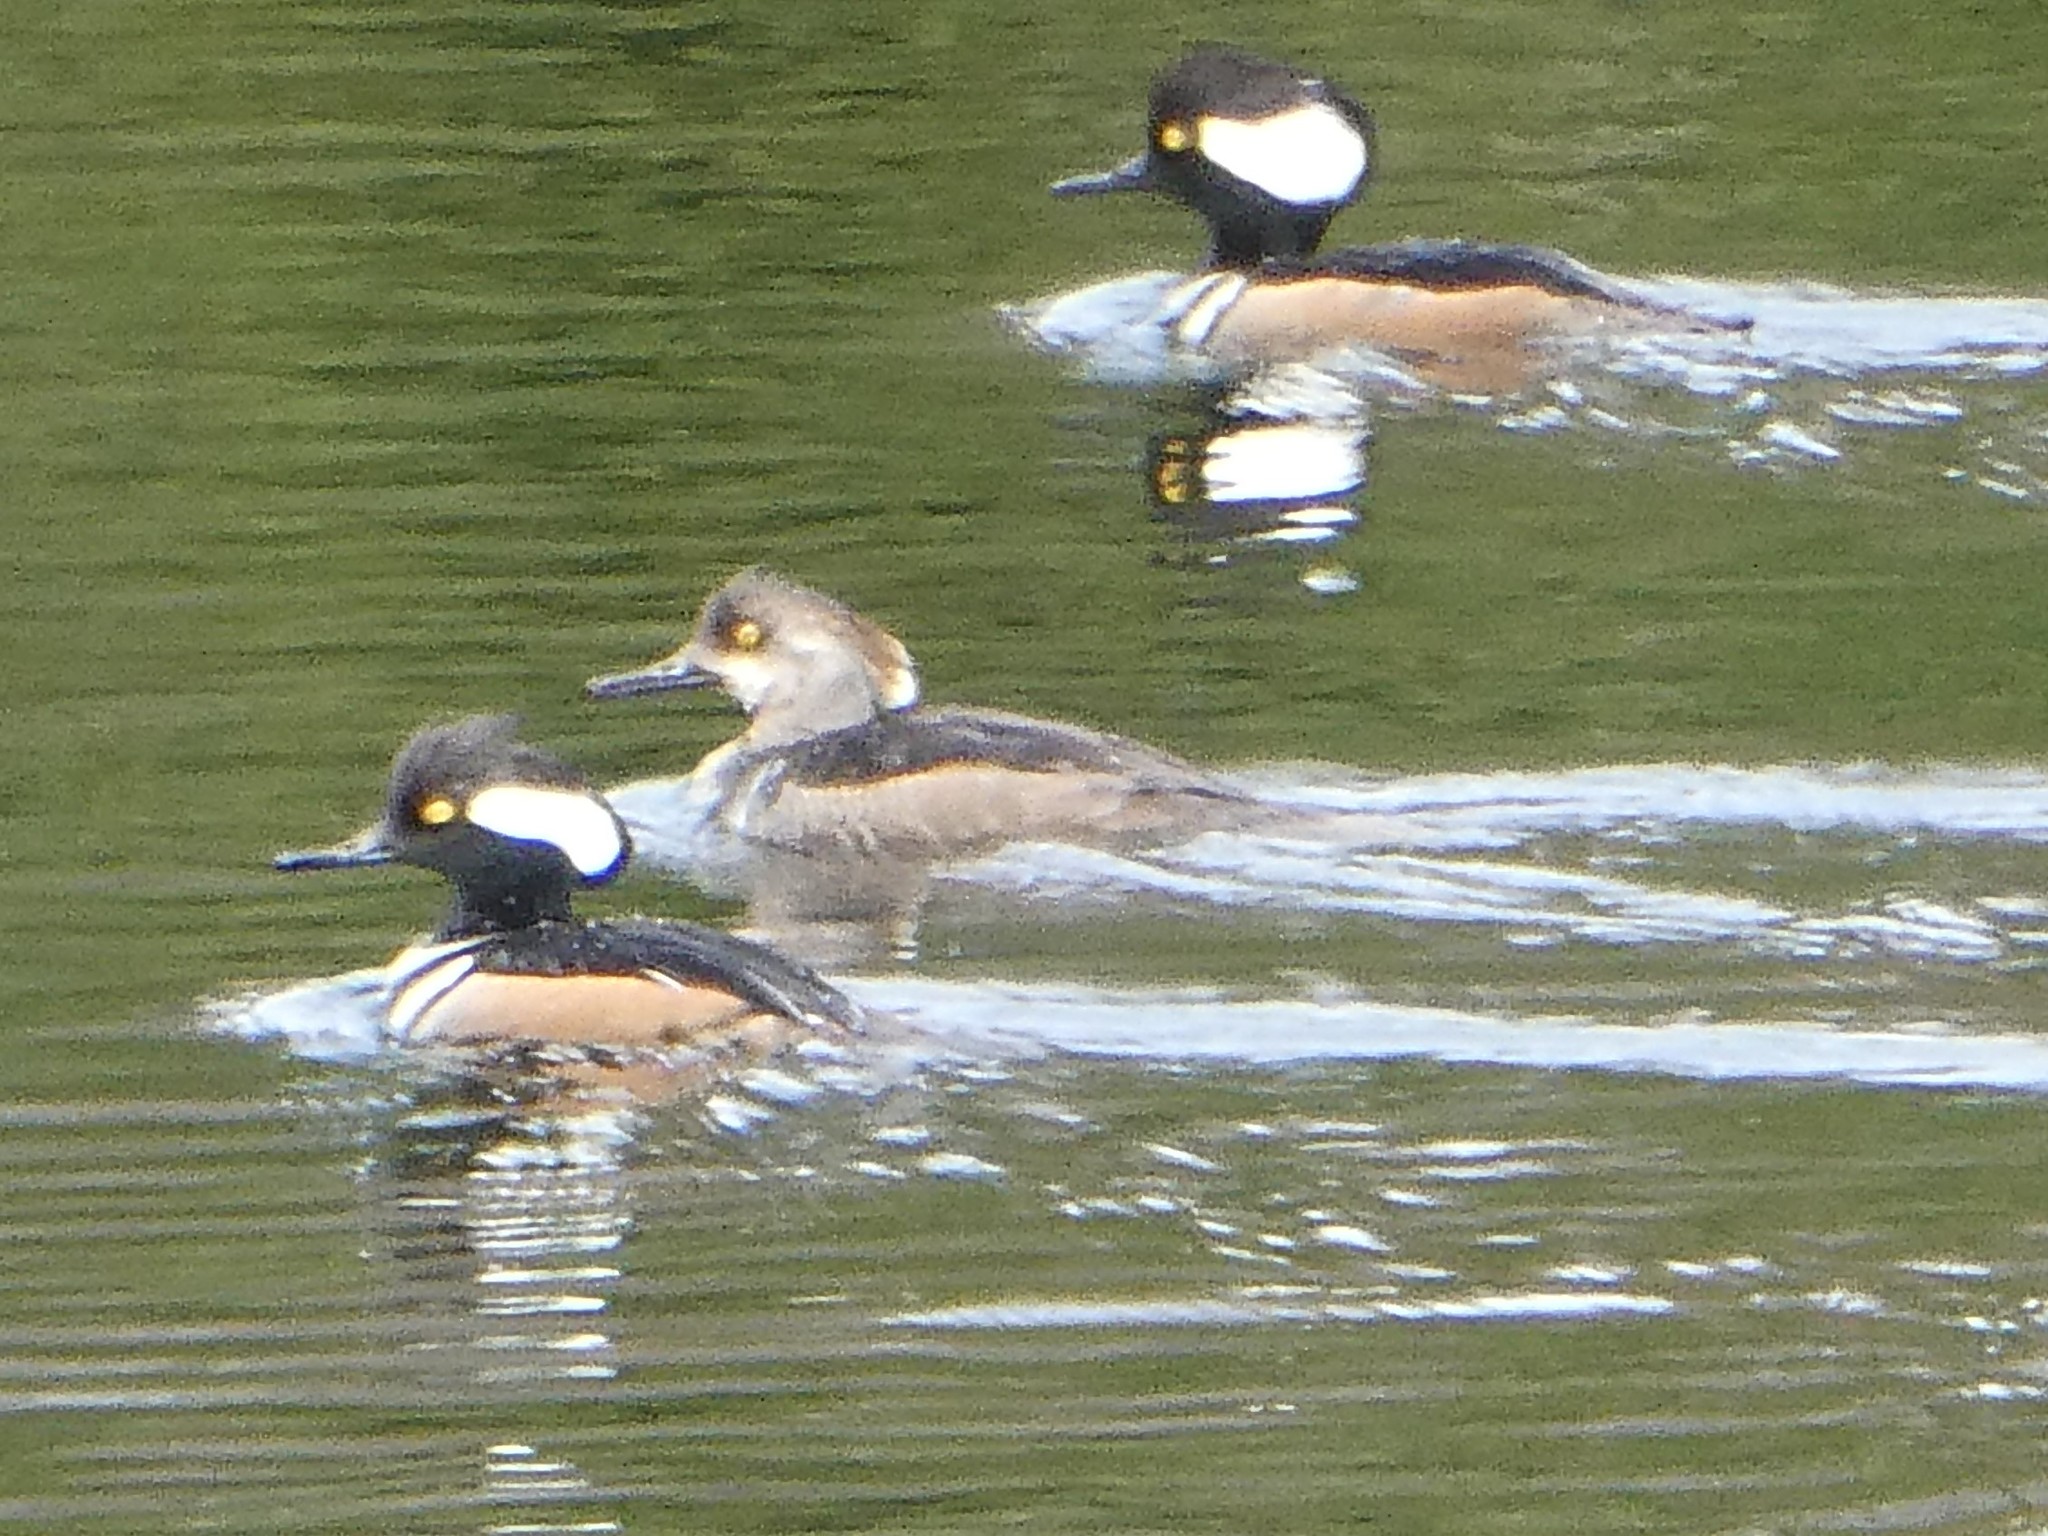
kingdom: Animalia
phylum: Chordata
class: Aves
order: Anseriformes
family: Anatidae
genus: Lophodytes
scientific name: Lophodytes cucullatus
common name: Hooded merganser
